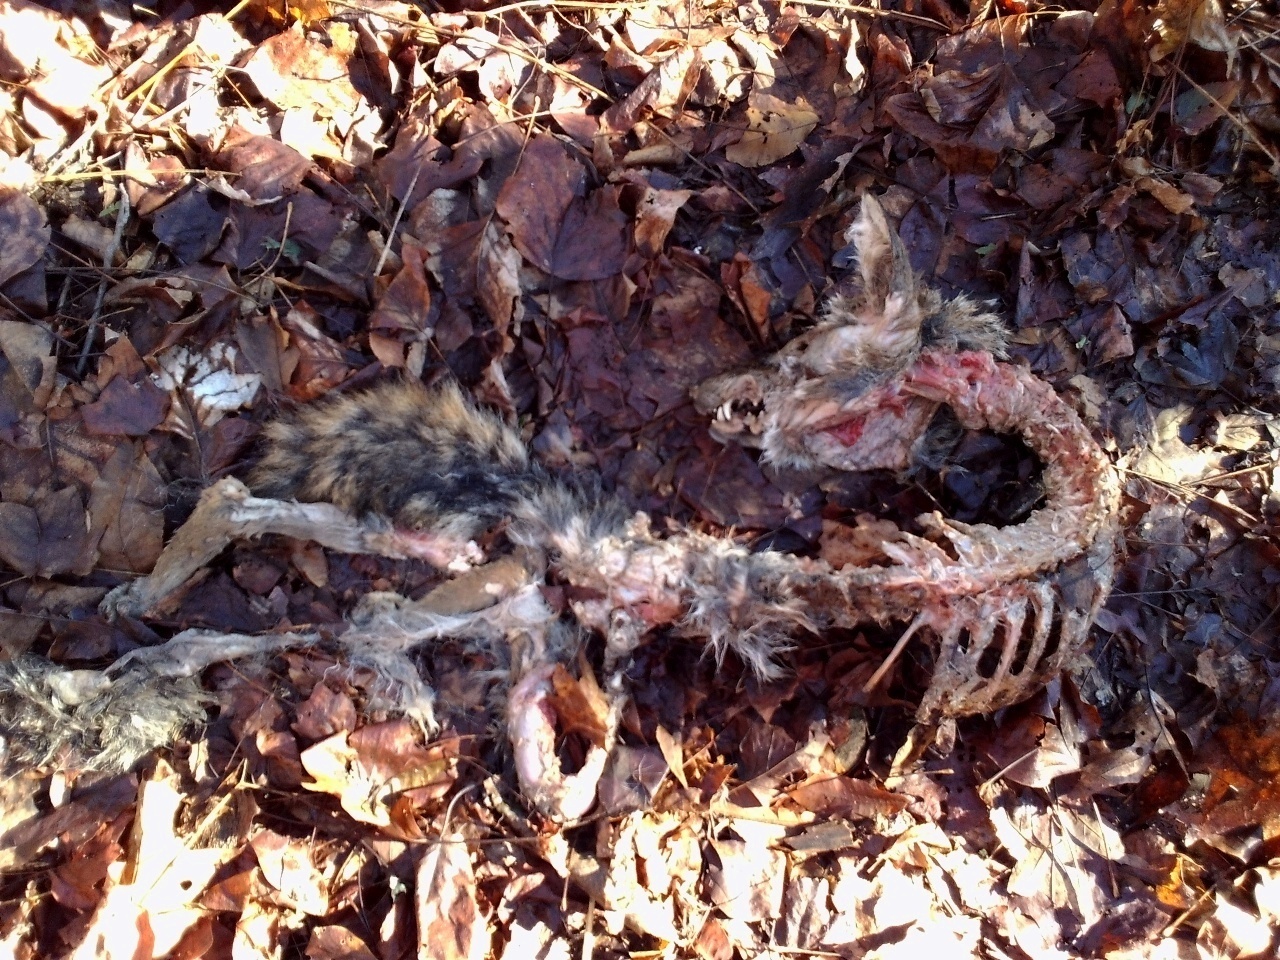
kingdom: Animalia
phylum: Chordata
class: Mammalia
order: Carnivora
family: Canidae
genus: Canis
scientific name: Canis latrans
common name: Coyote
